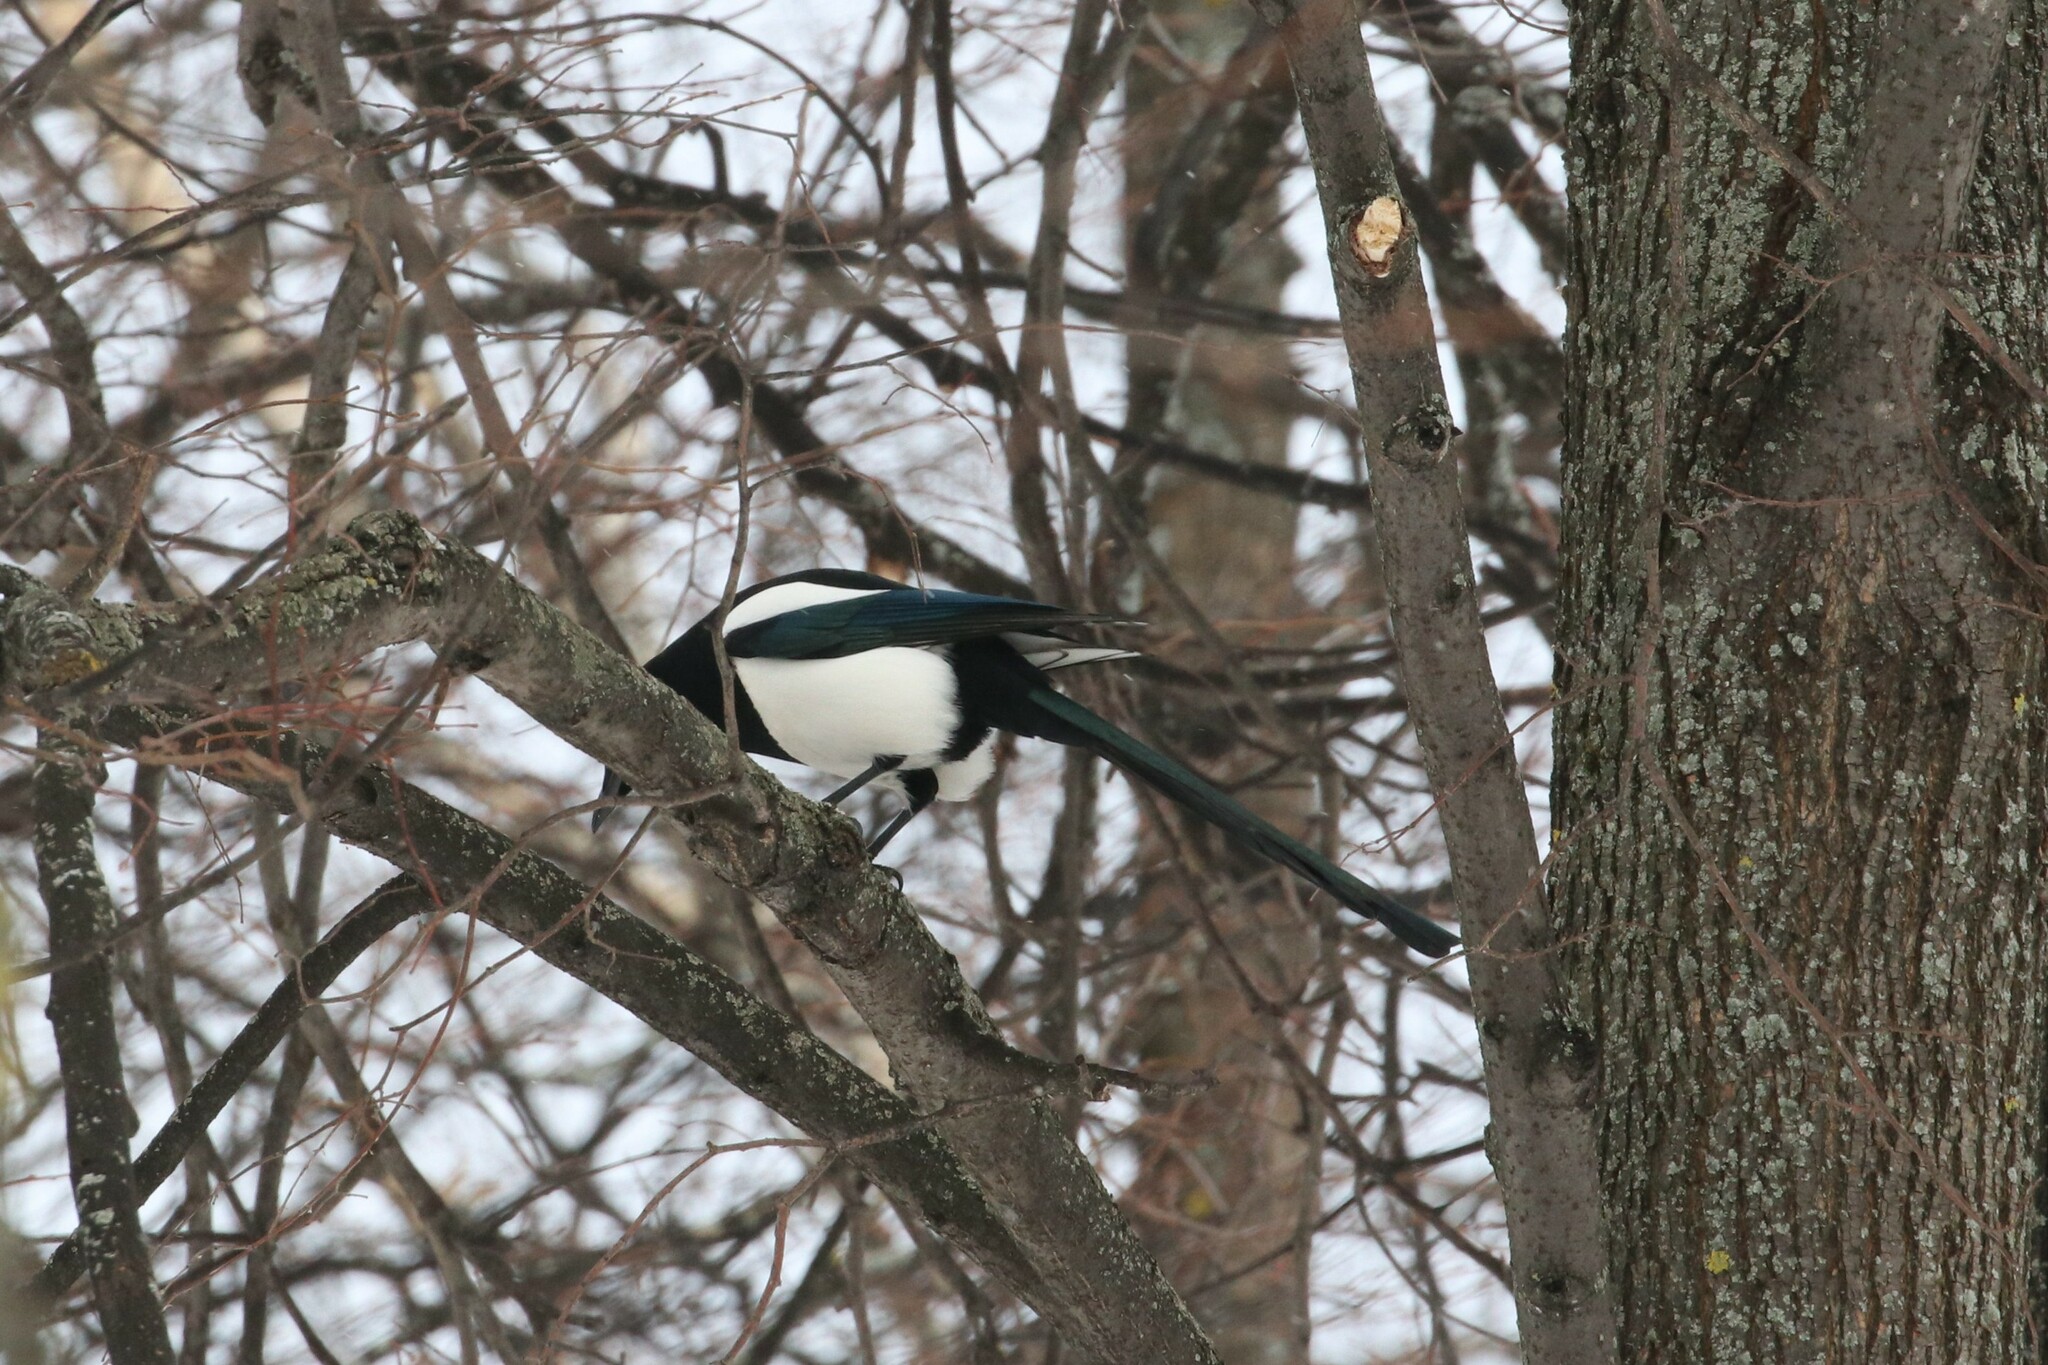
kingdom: Animalia
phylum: Chordata
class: Aves
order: Passeriformes
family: Corvidae
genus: Pica
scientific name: Pica pica
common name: Eurasian magpie
